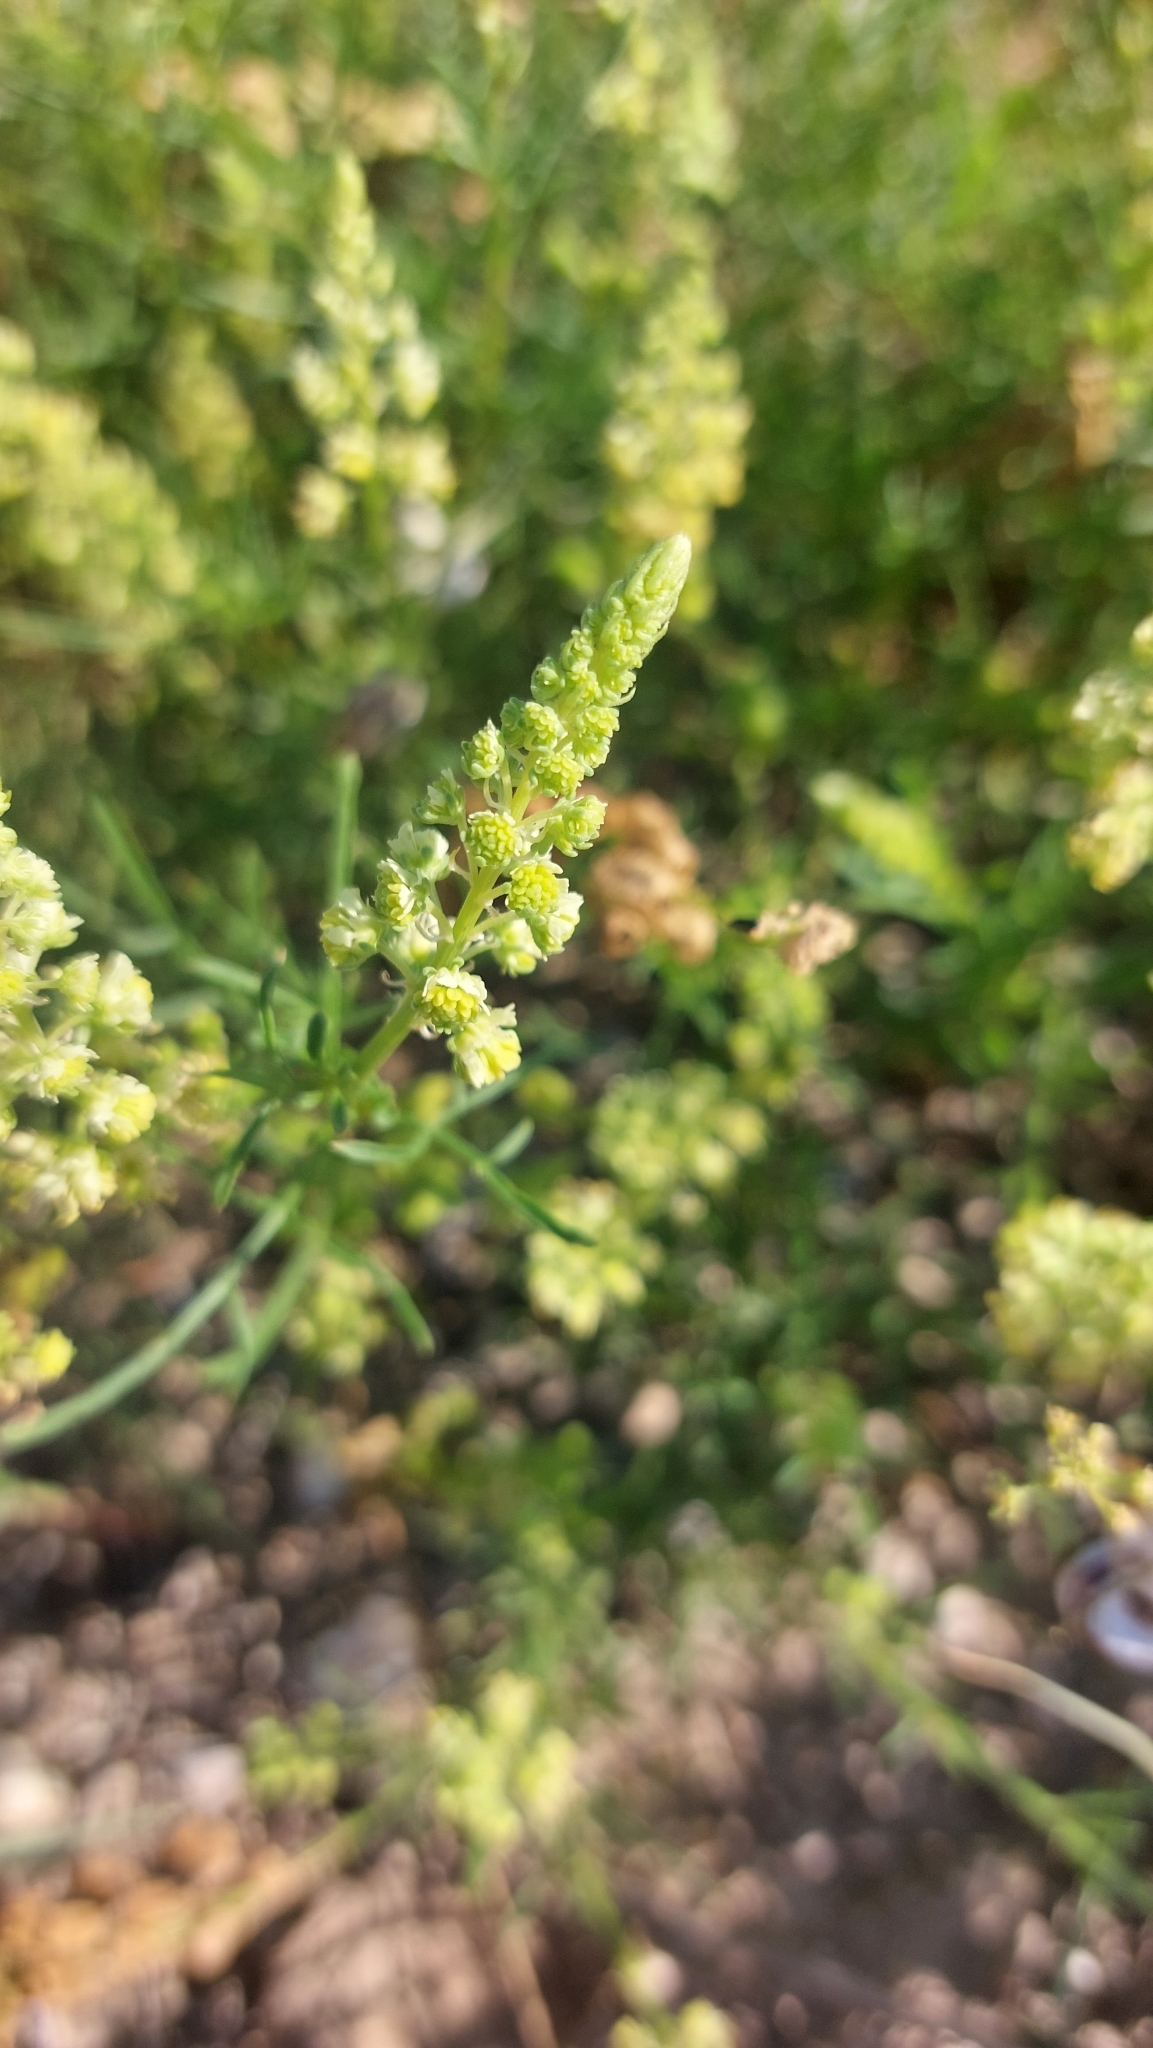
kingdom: Plantae
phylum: Tracheophyta
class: Magnoliopsida
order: Brassicales
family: Resedaceae
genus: Reseda
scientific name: Reseda lutea
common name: Wild mignonette
